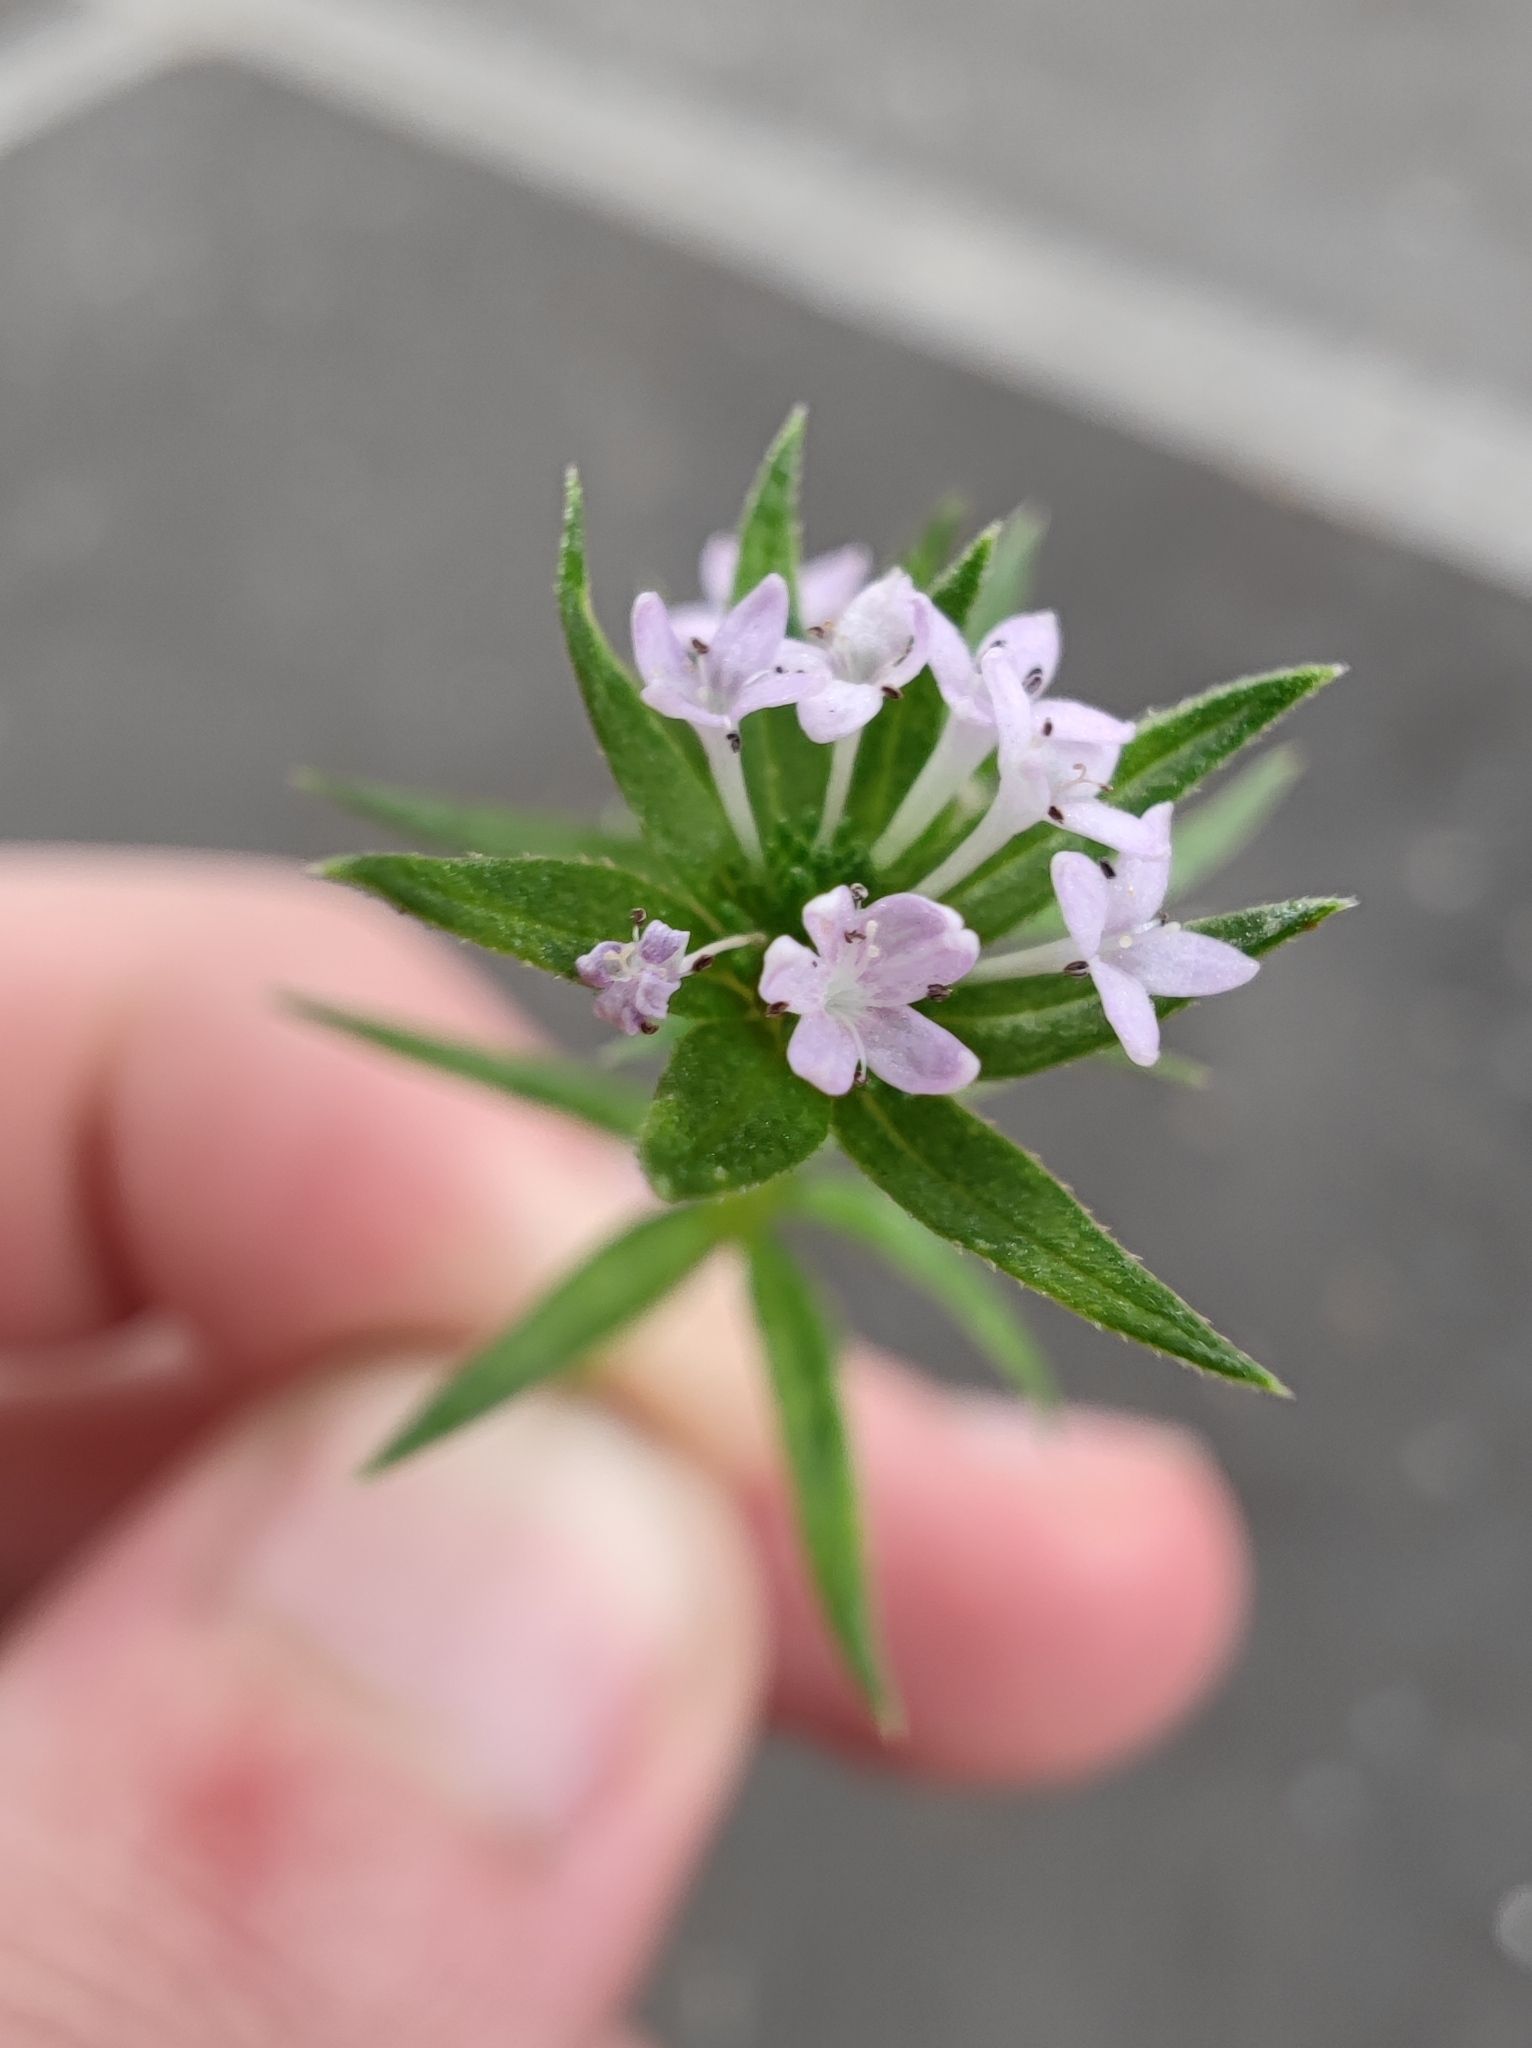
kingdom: Plantae
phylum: Tracheophyta
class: Magnoliopsida
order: Gentianales
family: Rubiaceae
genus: Sherardia
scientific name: Sherardia arvensis
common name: Field madder
